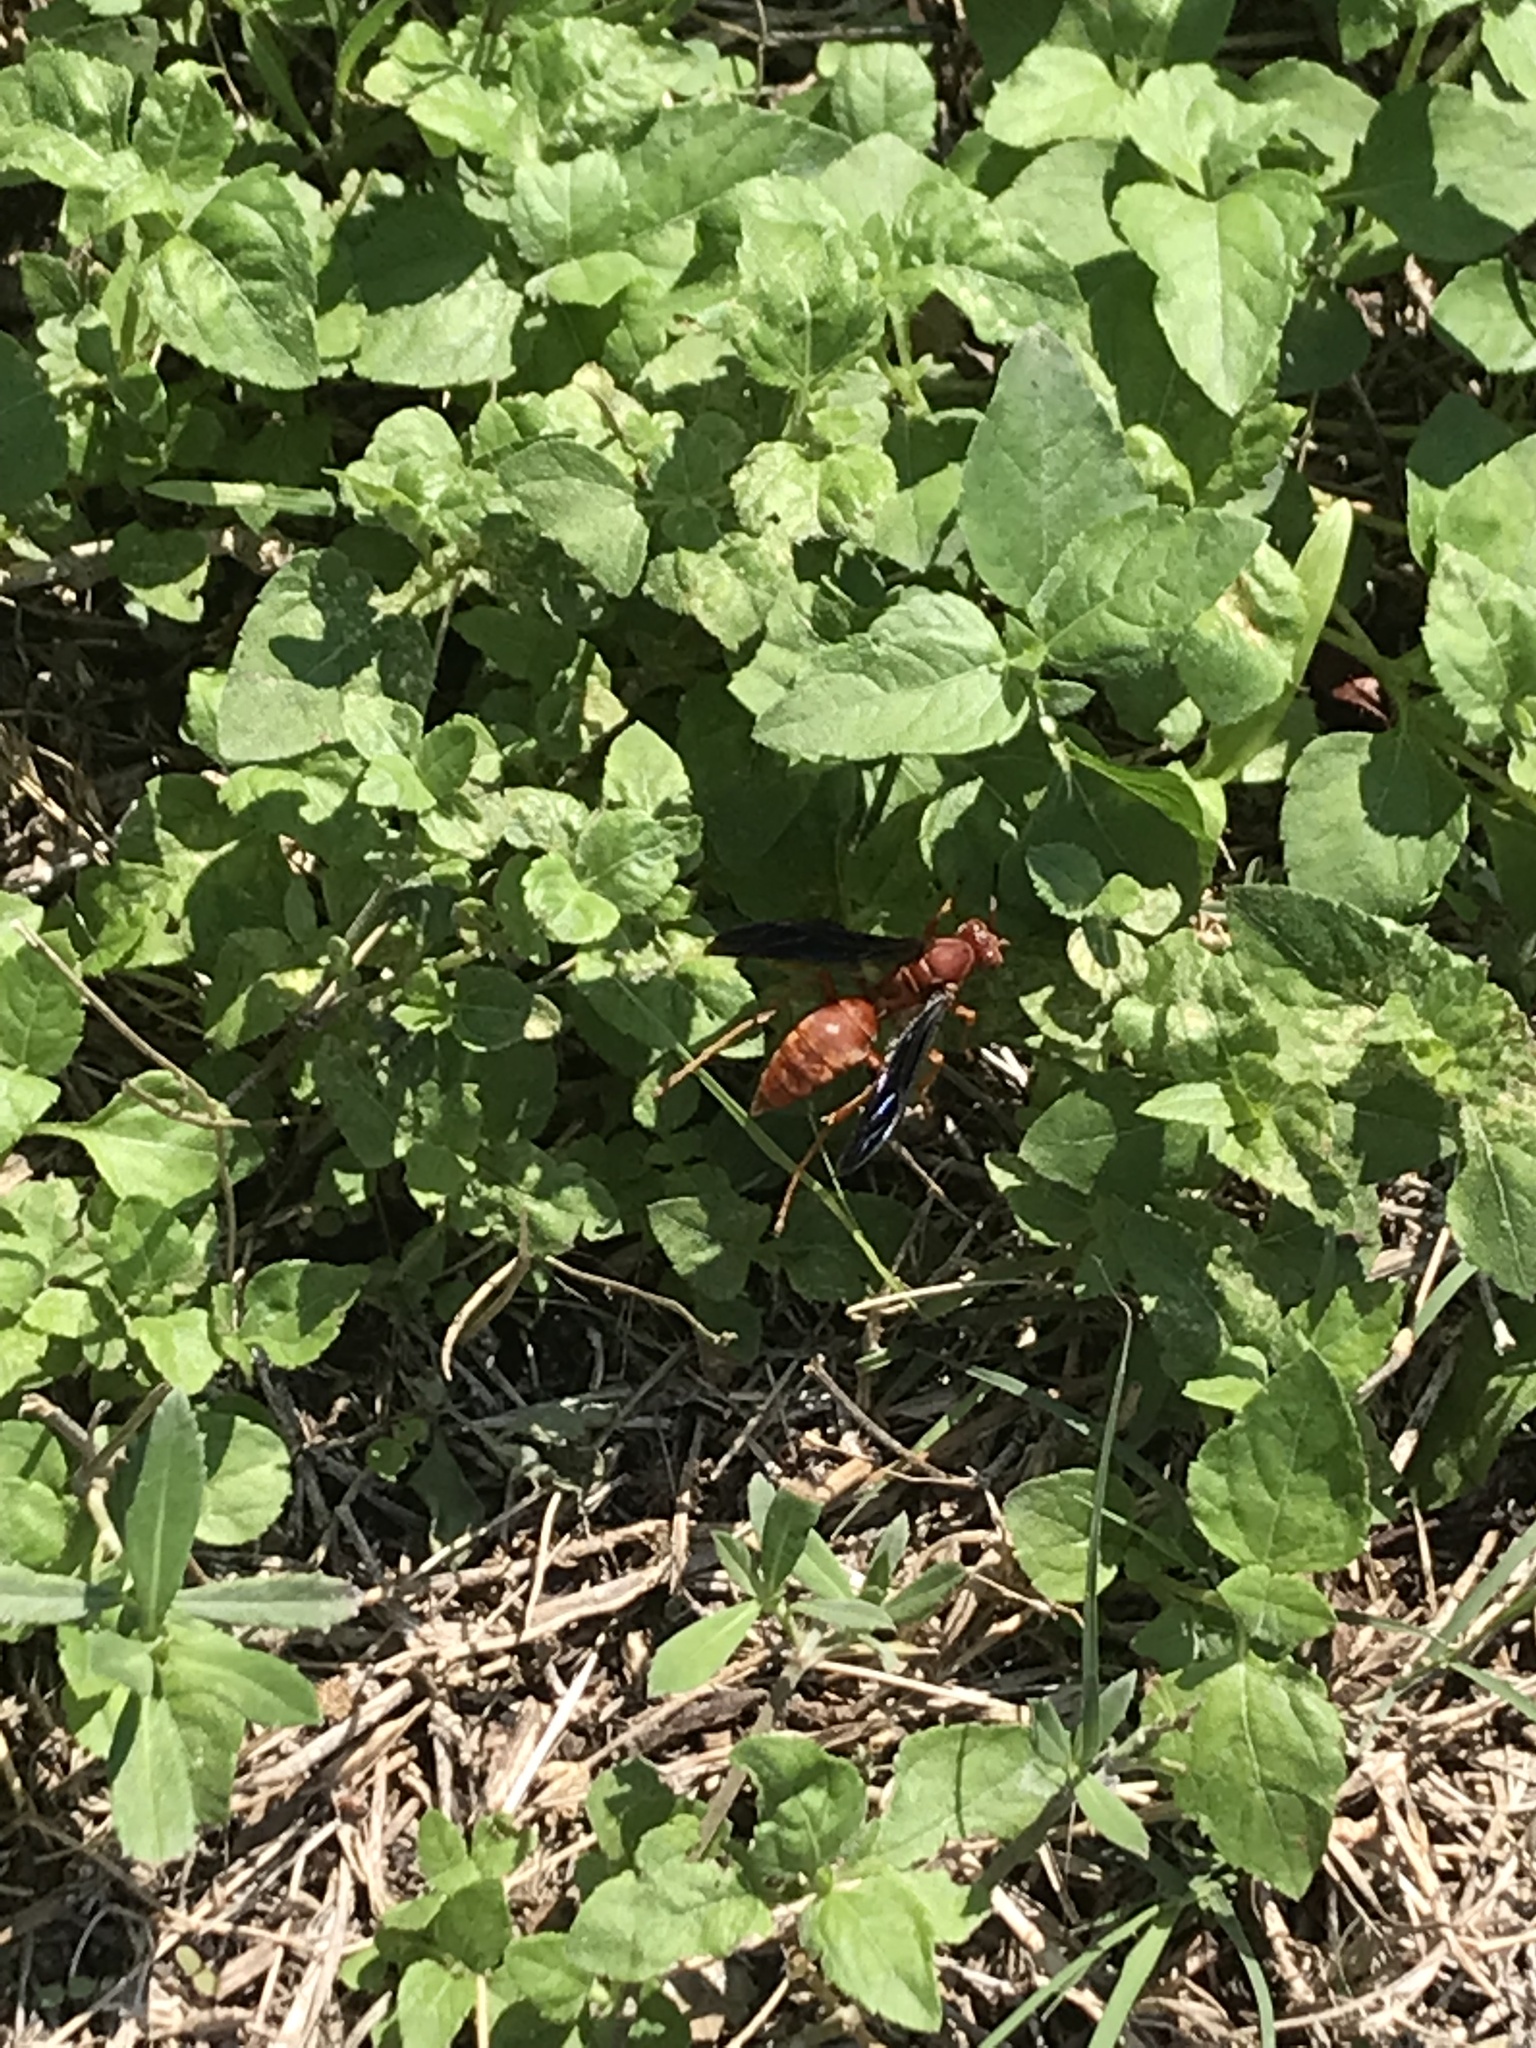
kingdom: Animalia
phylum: Arthropoda
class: Insecta
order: Hymenoptera
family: Vespidae
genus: Fuscopolistes
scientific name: Fuscopolistes
